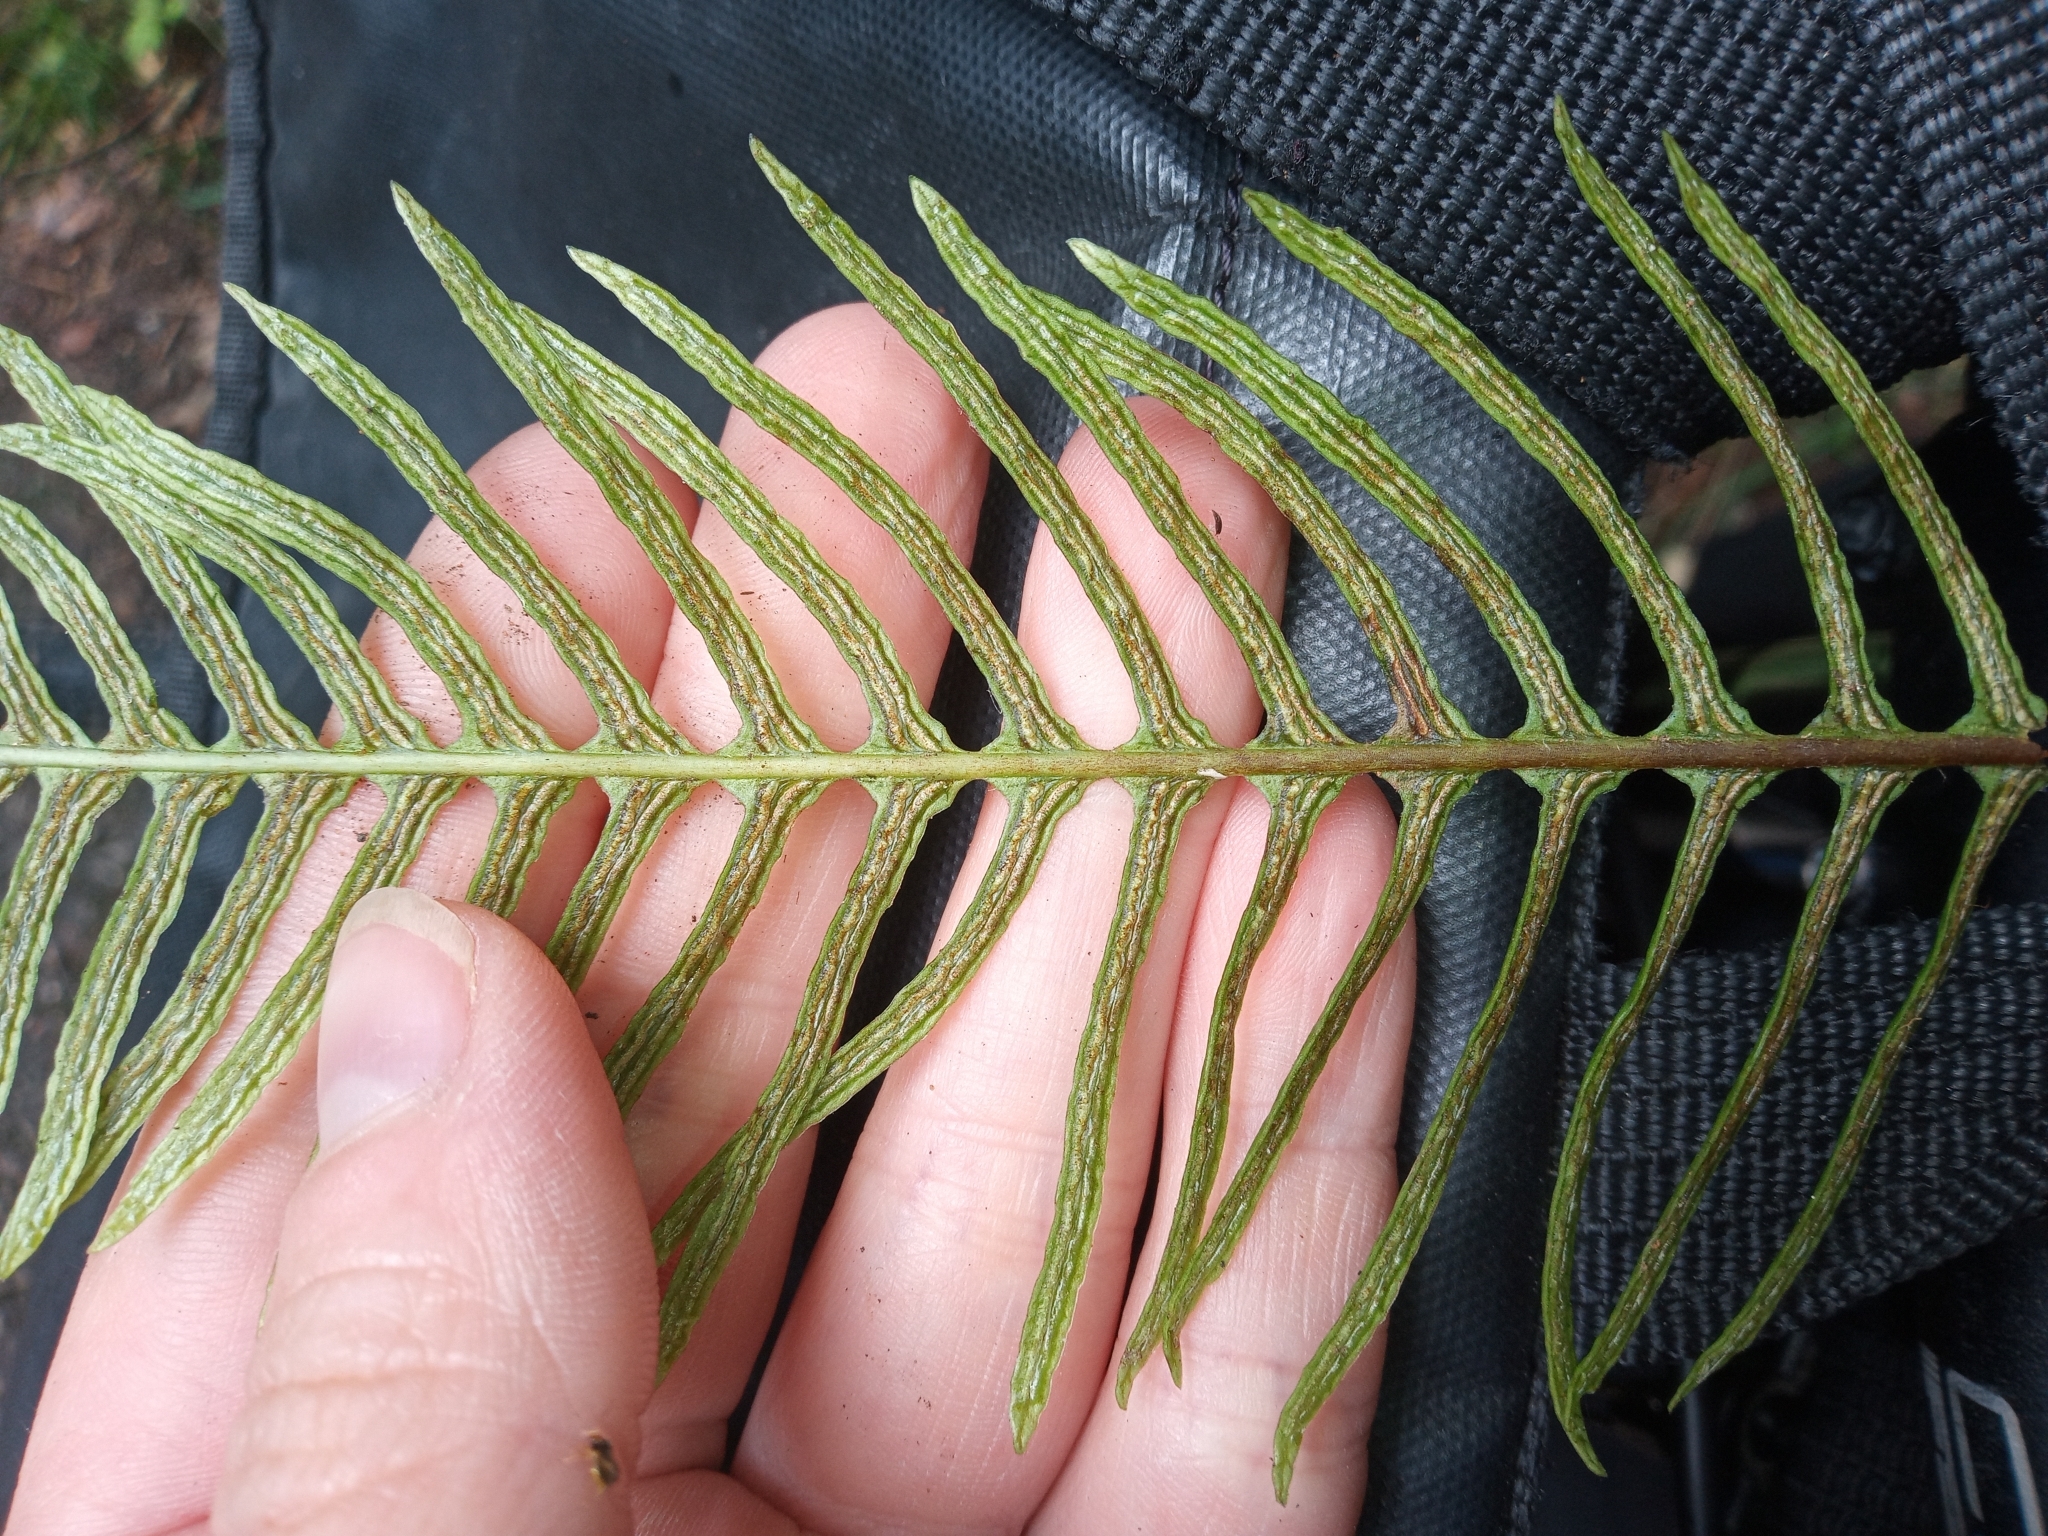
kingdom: Plantae
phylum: Tracheophyta
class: Polypodiopsida
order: Polypodiales
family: Blechnaceae
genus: Struthiopteris
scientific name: Struthiopteris spicant
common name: Deer fern
